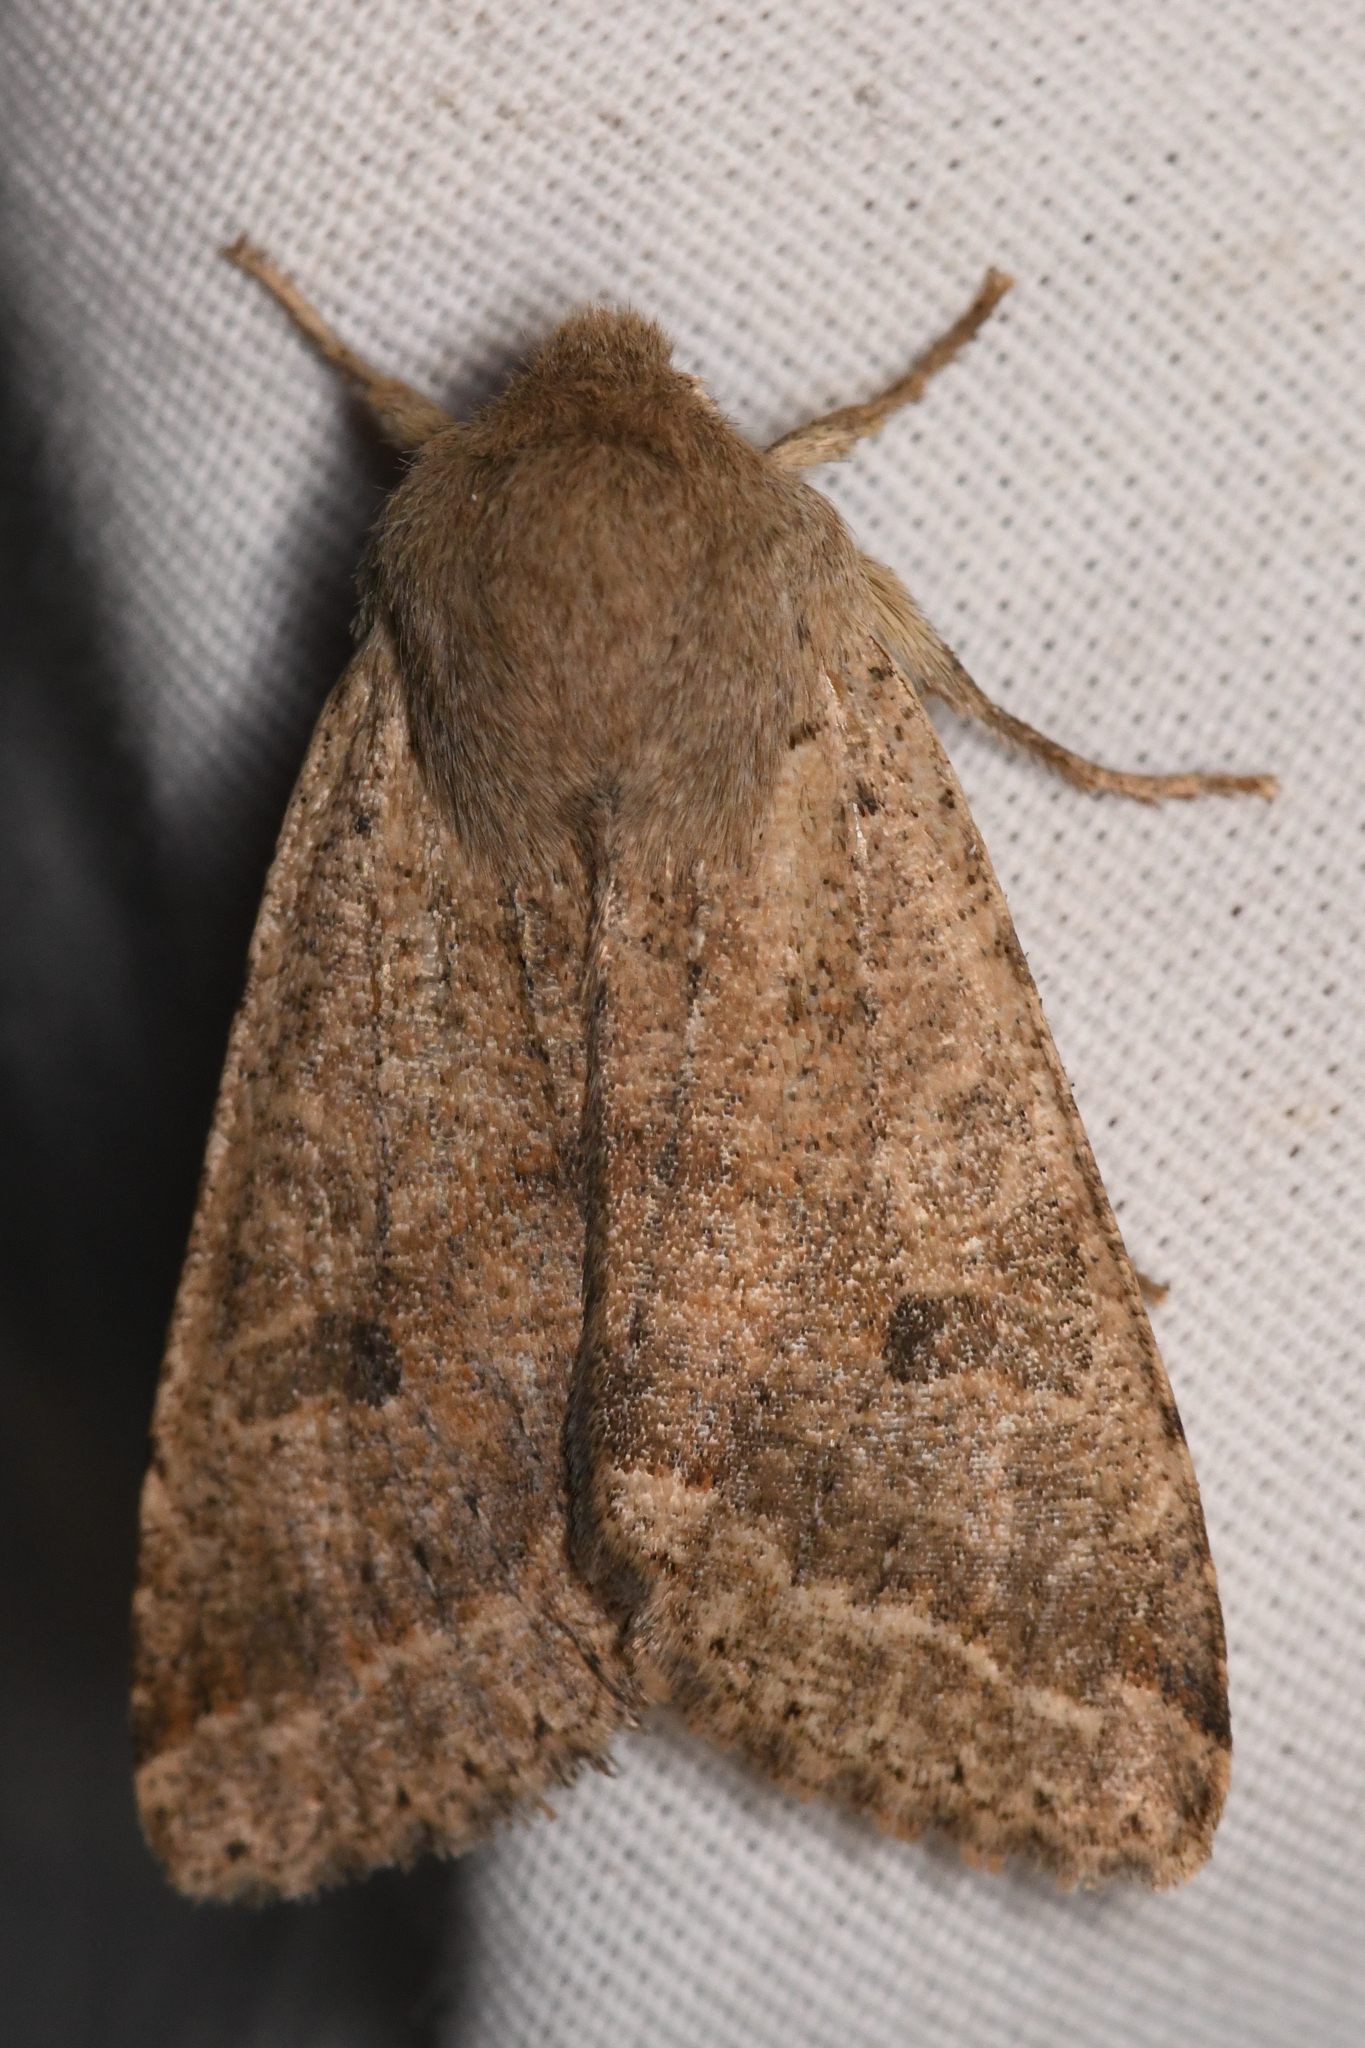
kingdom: Animalia
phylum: Arthropoda
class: Insecta
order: Lepidoptera
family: Noctuidae
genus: Orthosia
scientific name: Orthosia pacifica
